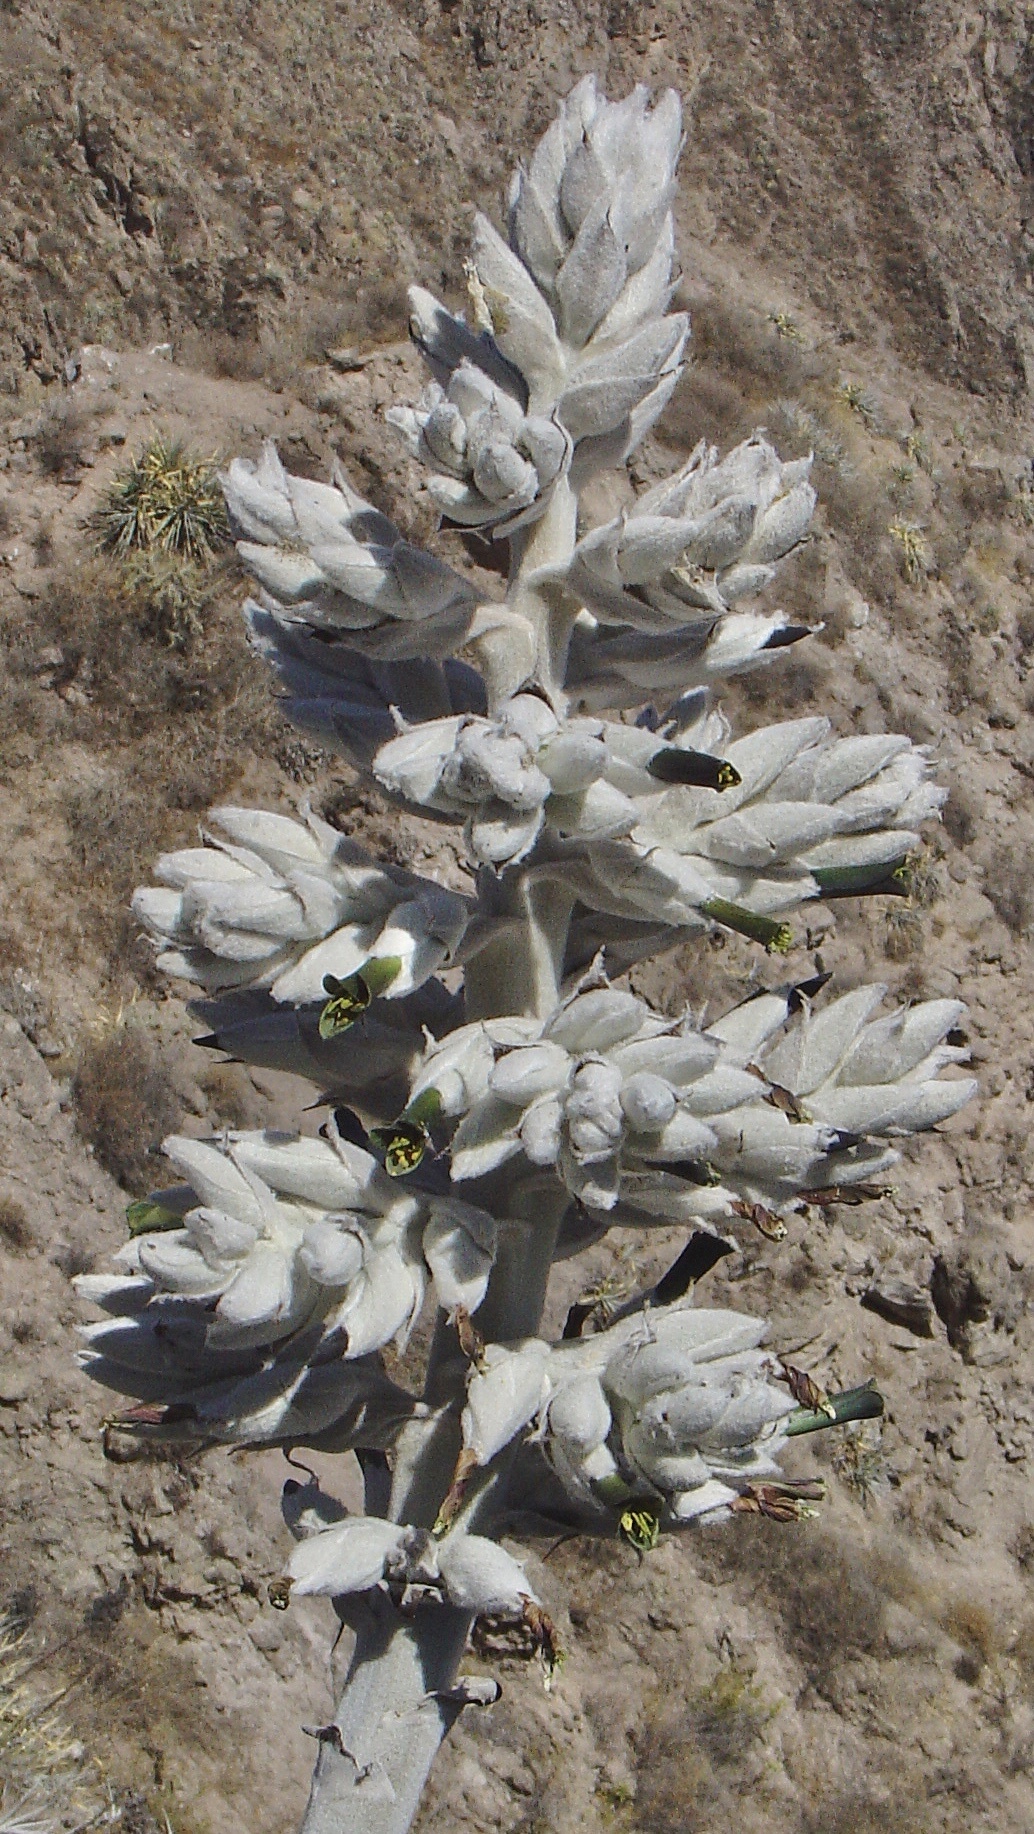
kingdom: Plantae
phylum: Tracheophyta
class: Liliopsida
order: Poales
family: Bromeliaceae
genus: Puya
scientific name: Puya densiflora
